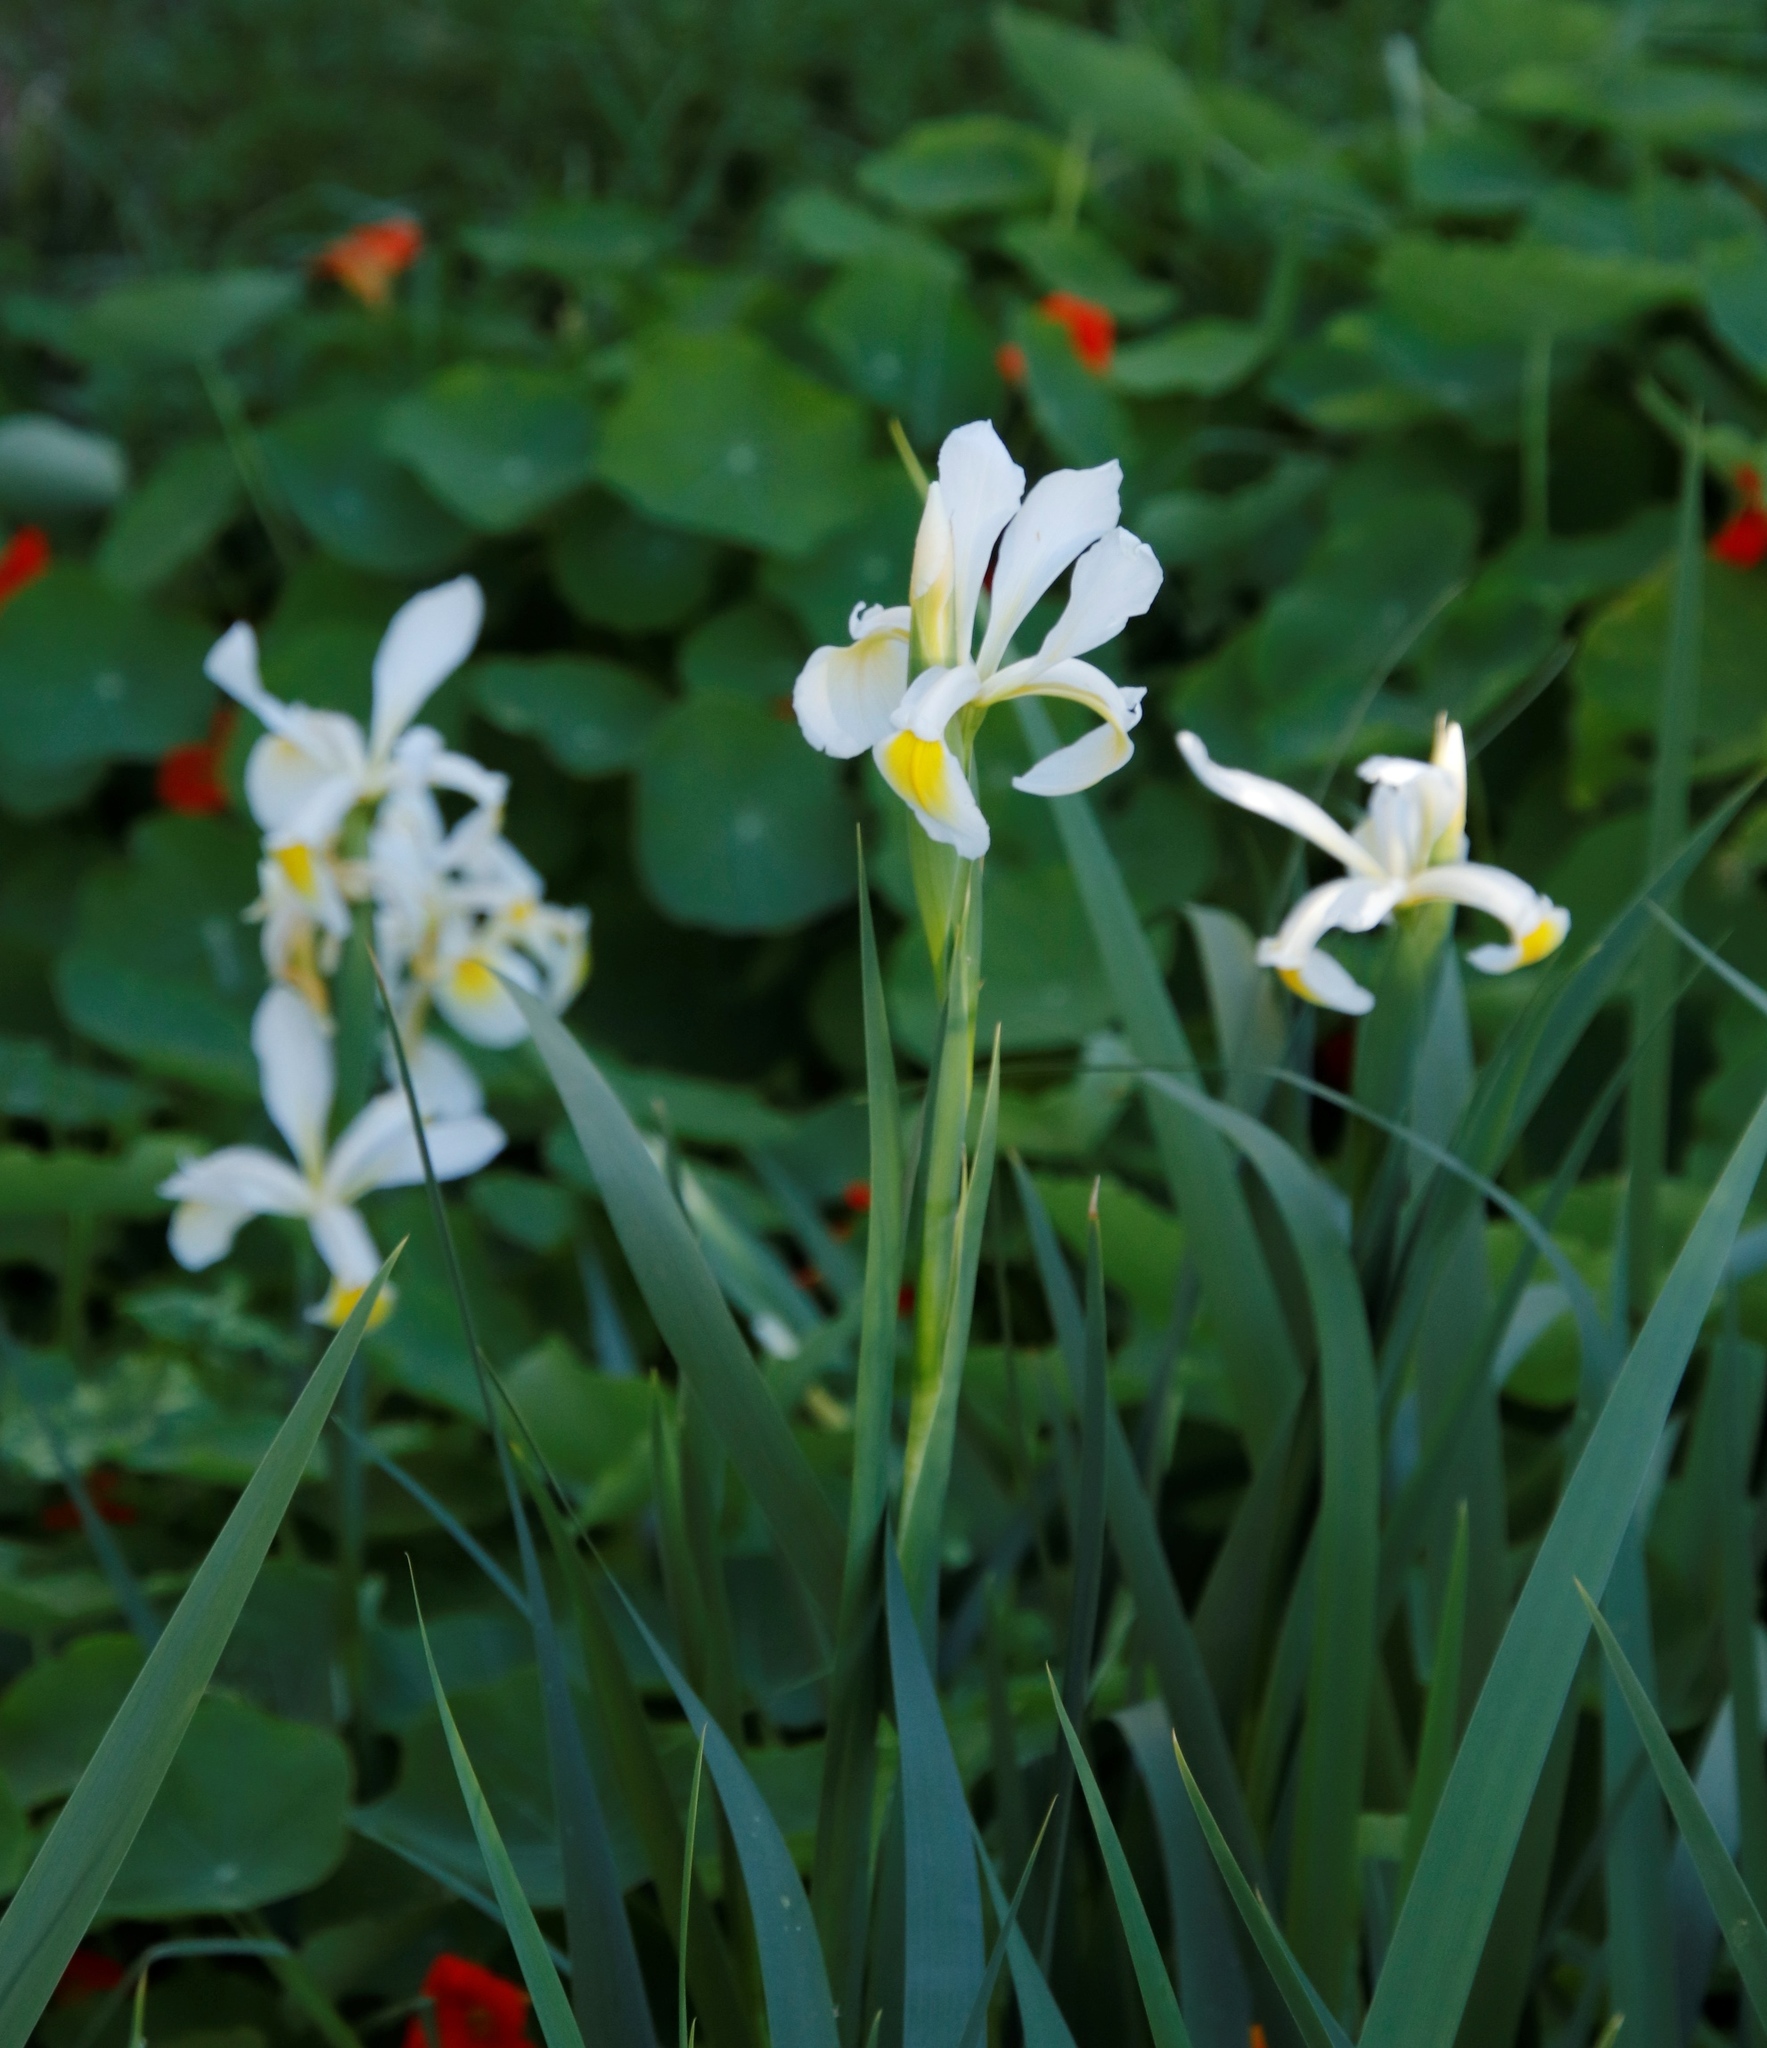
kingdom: Plantae
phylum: Tracheophyta
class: Liliopsida
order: Asparagales
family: Iridaceae
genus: Iris
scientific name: Iris orientalis
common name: Turkish iris
